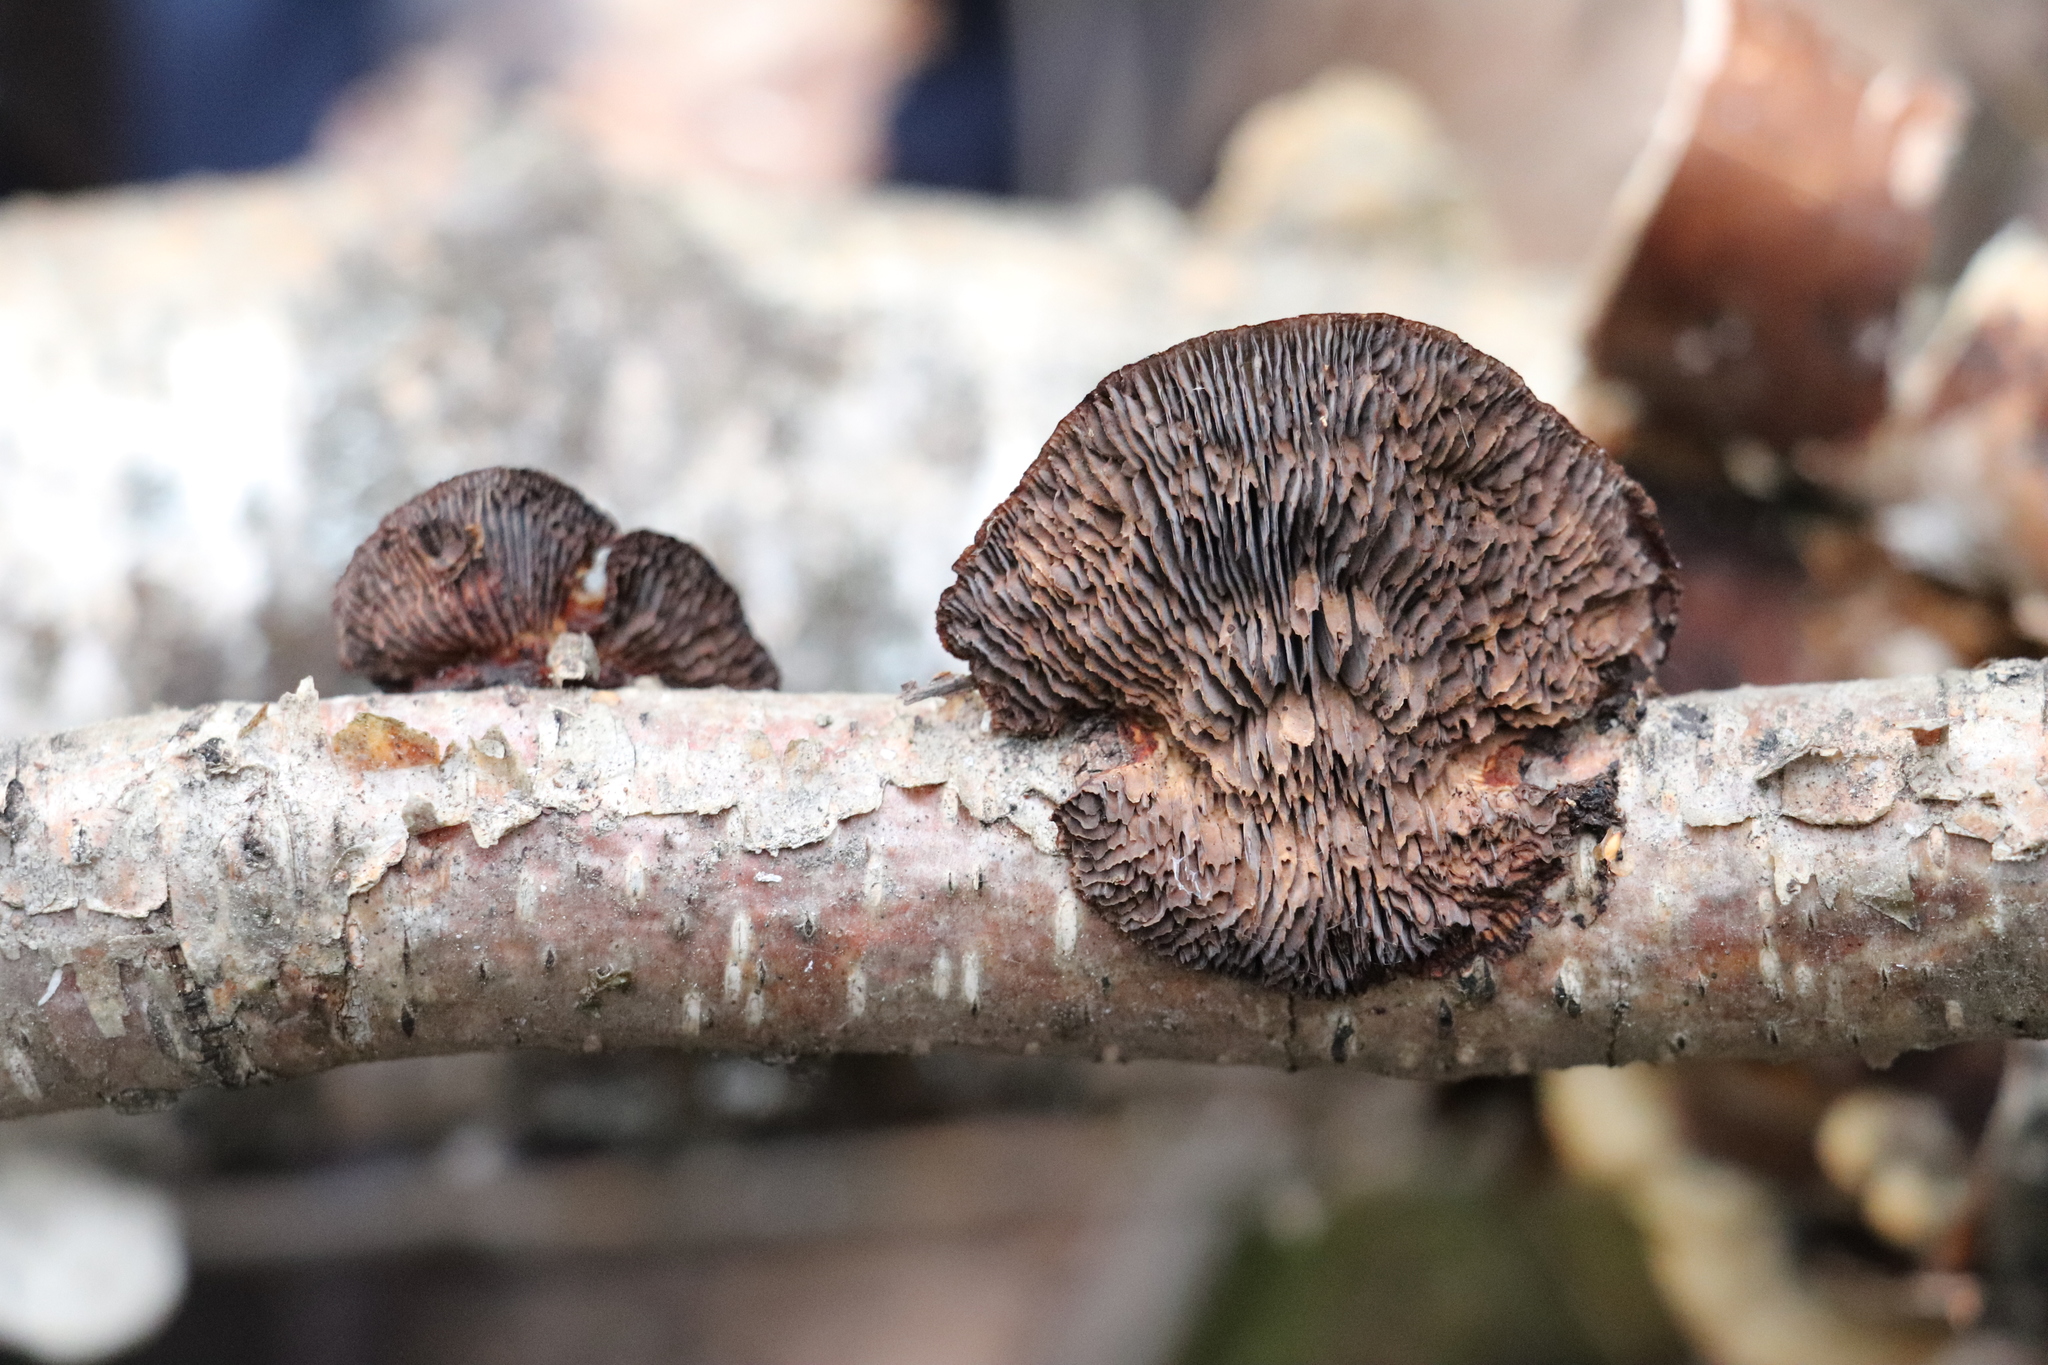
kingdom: Fungi
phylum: Basidiomycota
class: Agaricomycetes
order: Polyporales
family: Polyporaceae
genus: Daedaleopsis
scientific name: Daedaleopsis tricolor
